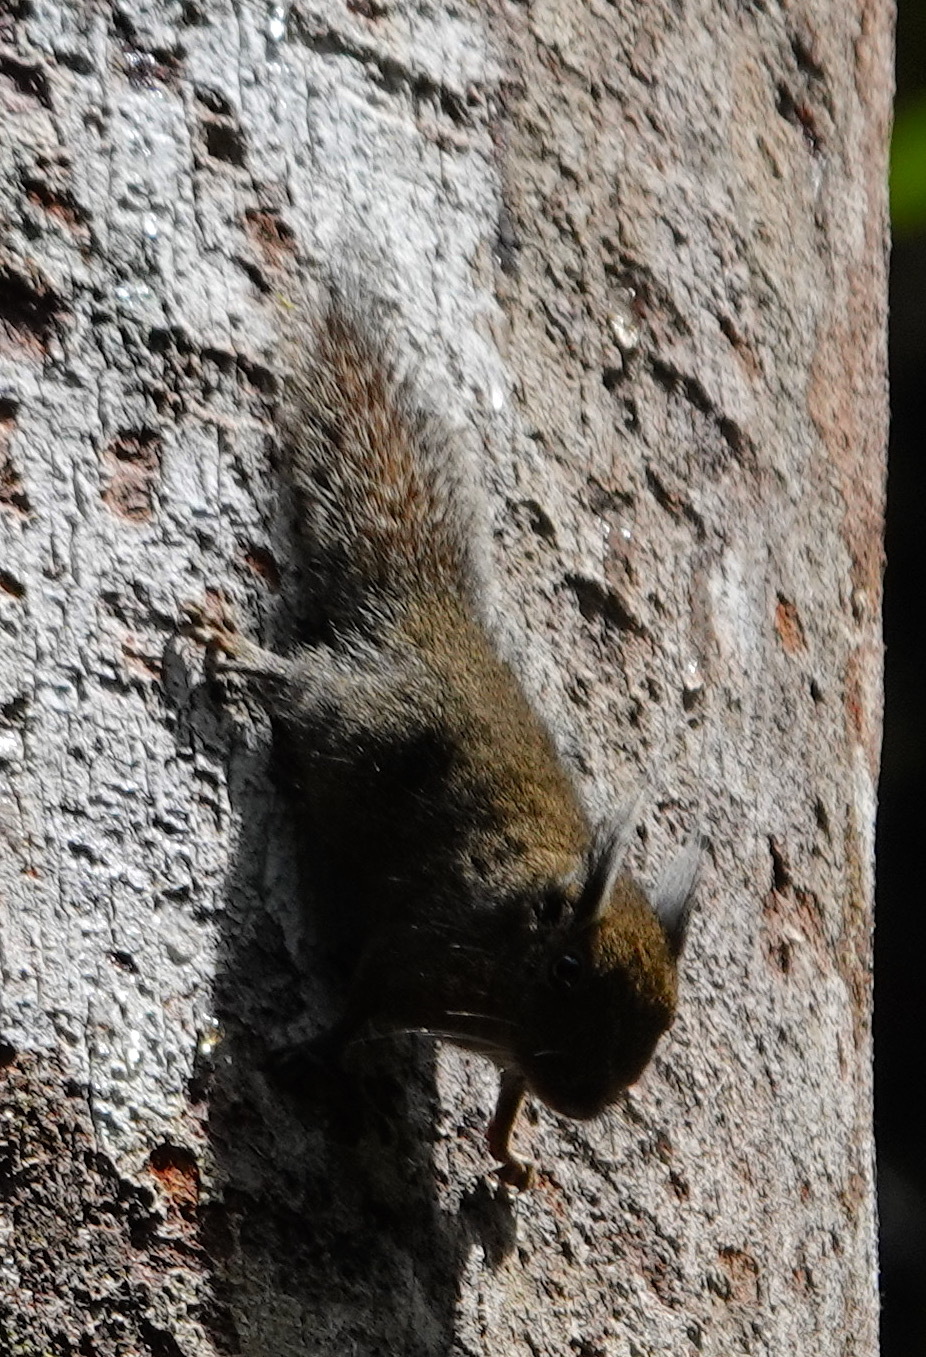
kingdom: Animalia
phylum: Chordata
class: Mammalia
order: Rodentia
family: Sciuridae
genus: Exilisciurus
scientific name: Exilisciurus whiteheadi
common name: Tufted pygmy squirrel
